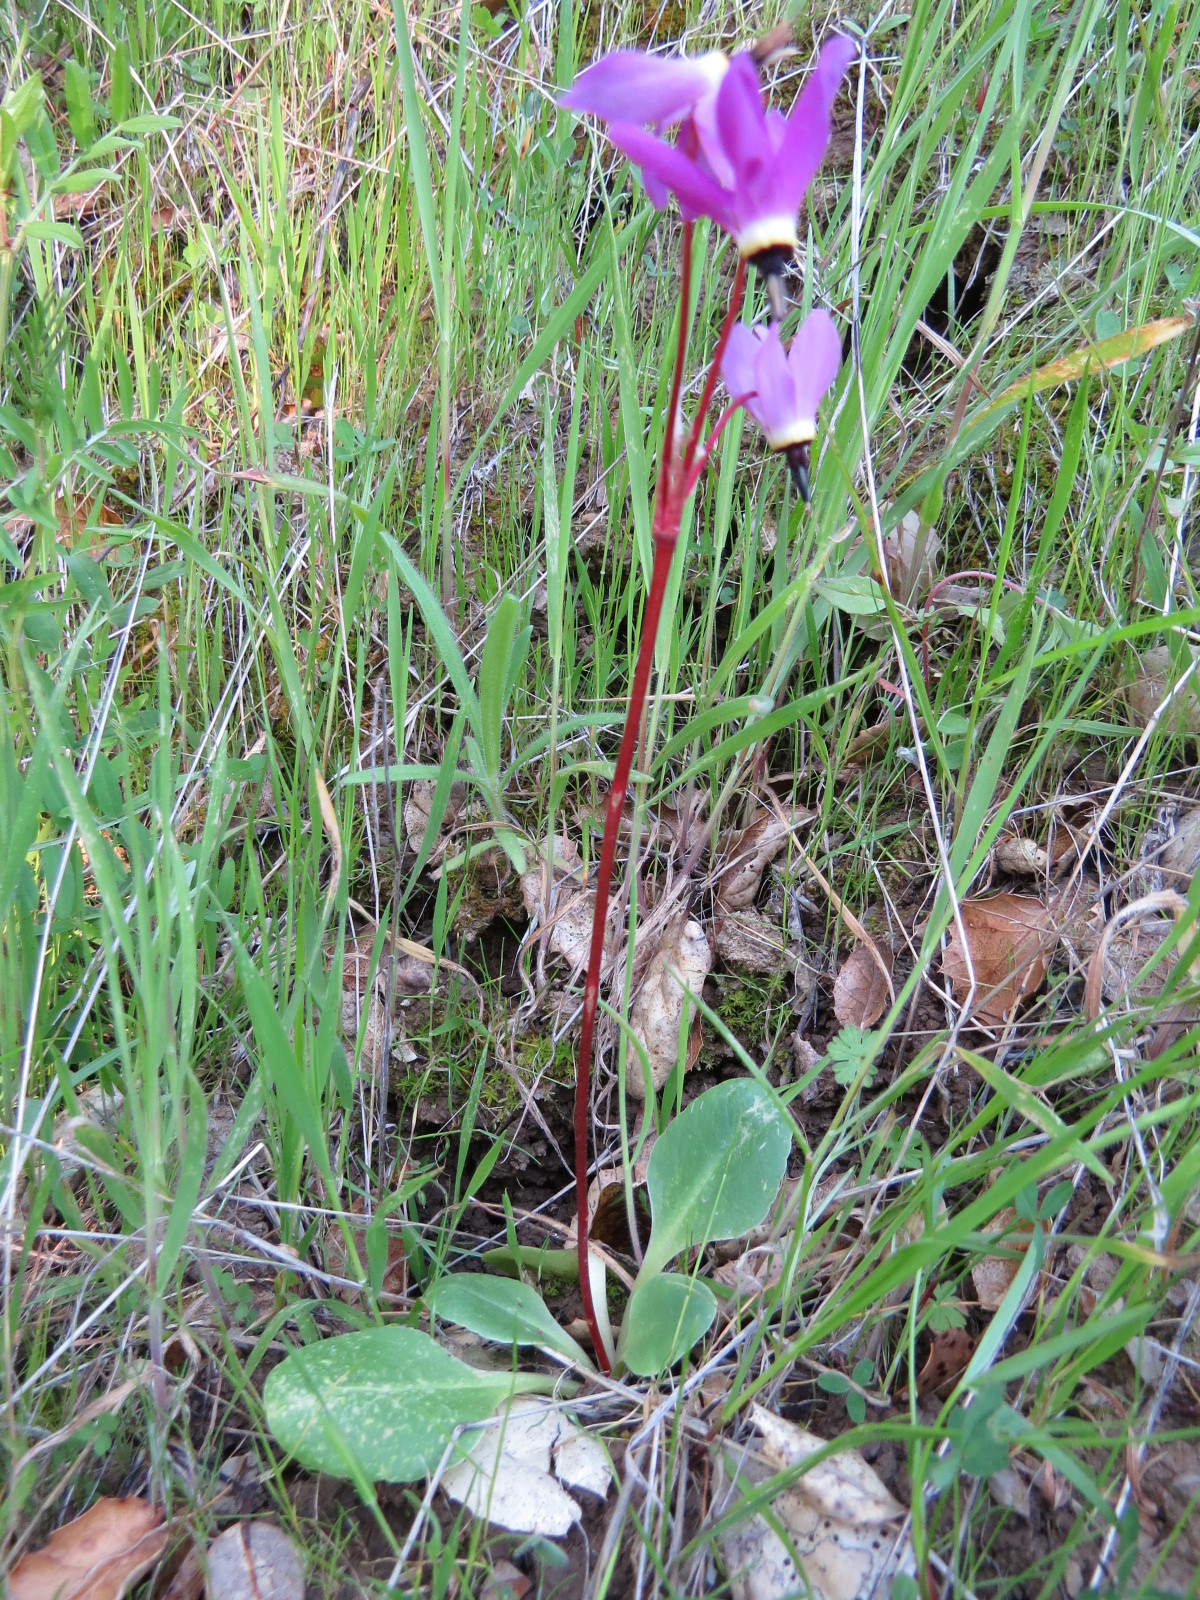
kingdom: Plantae
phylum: Tracheophyta
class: Magnoliopsida
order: Ericales
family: Primulaceae
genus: Dodecatheon
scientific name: Dodecatheon hendersonii
